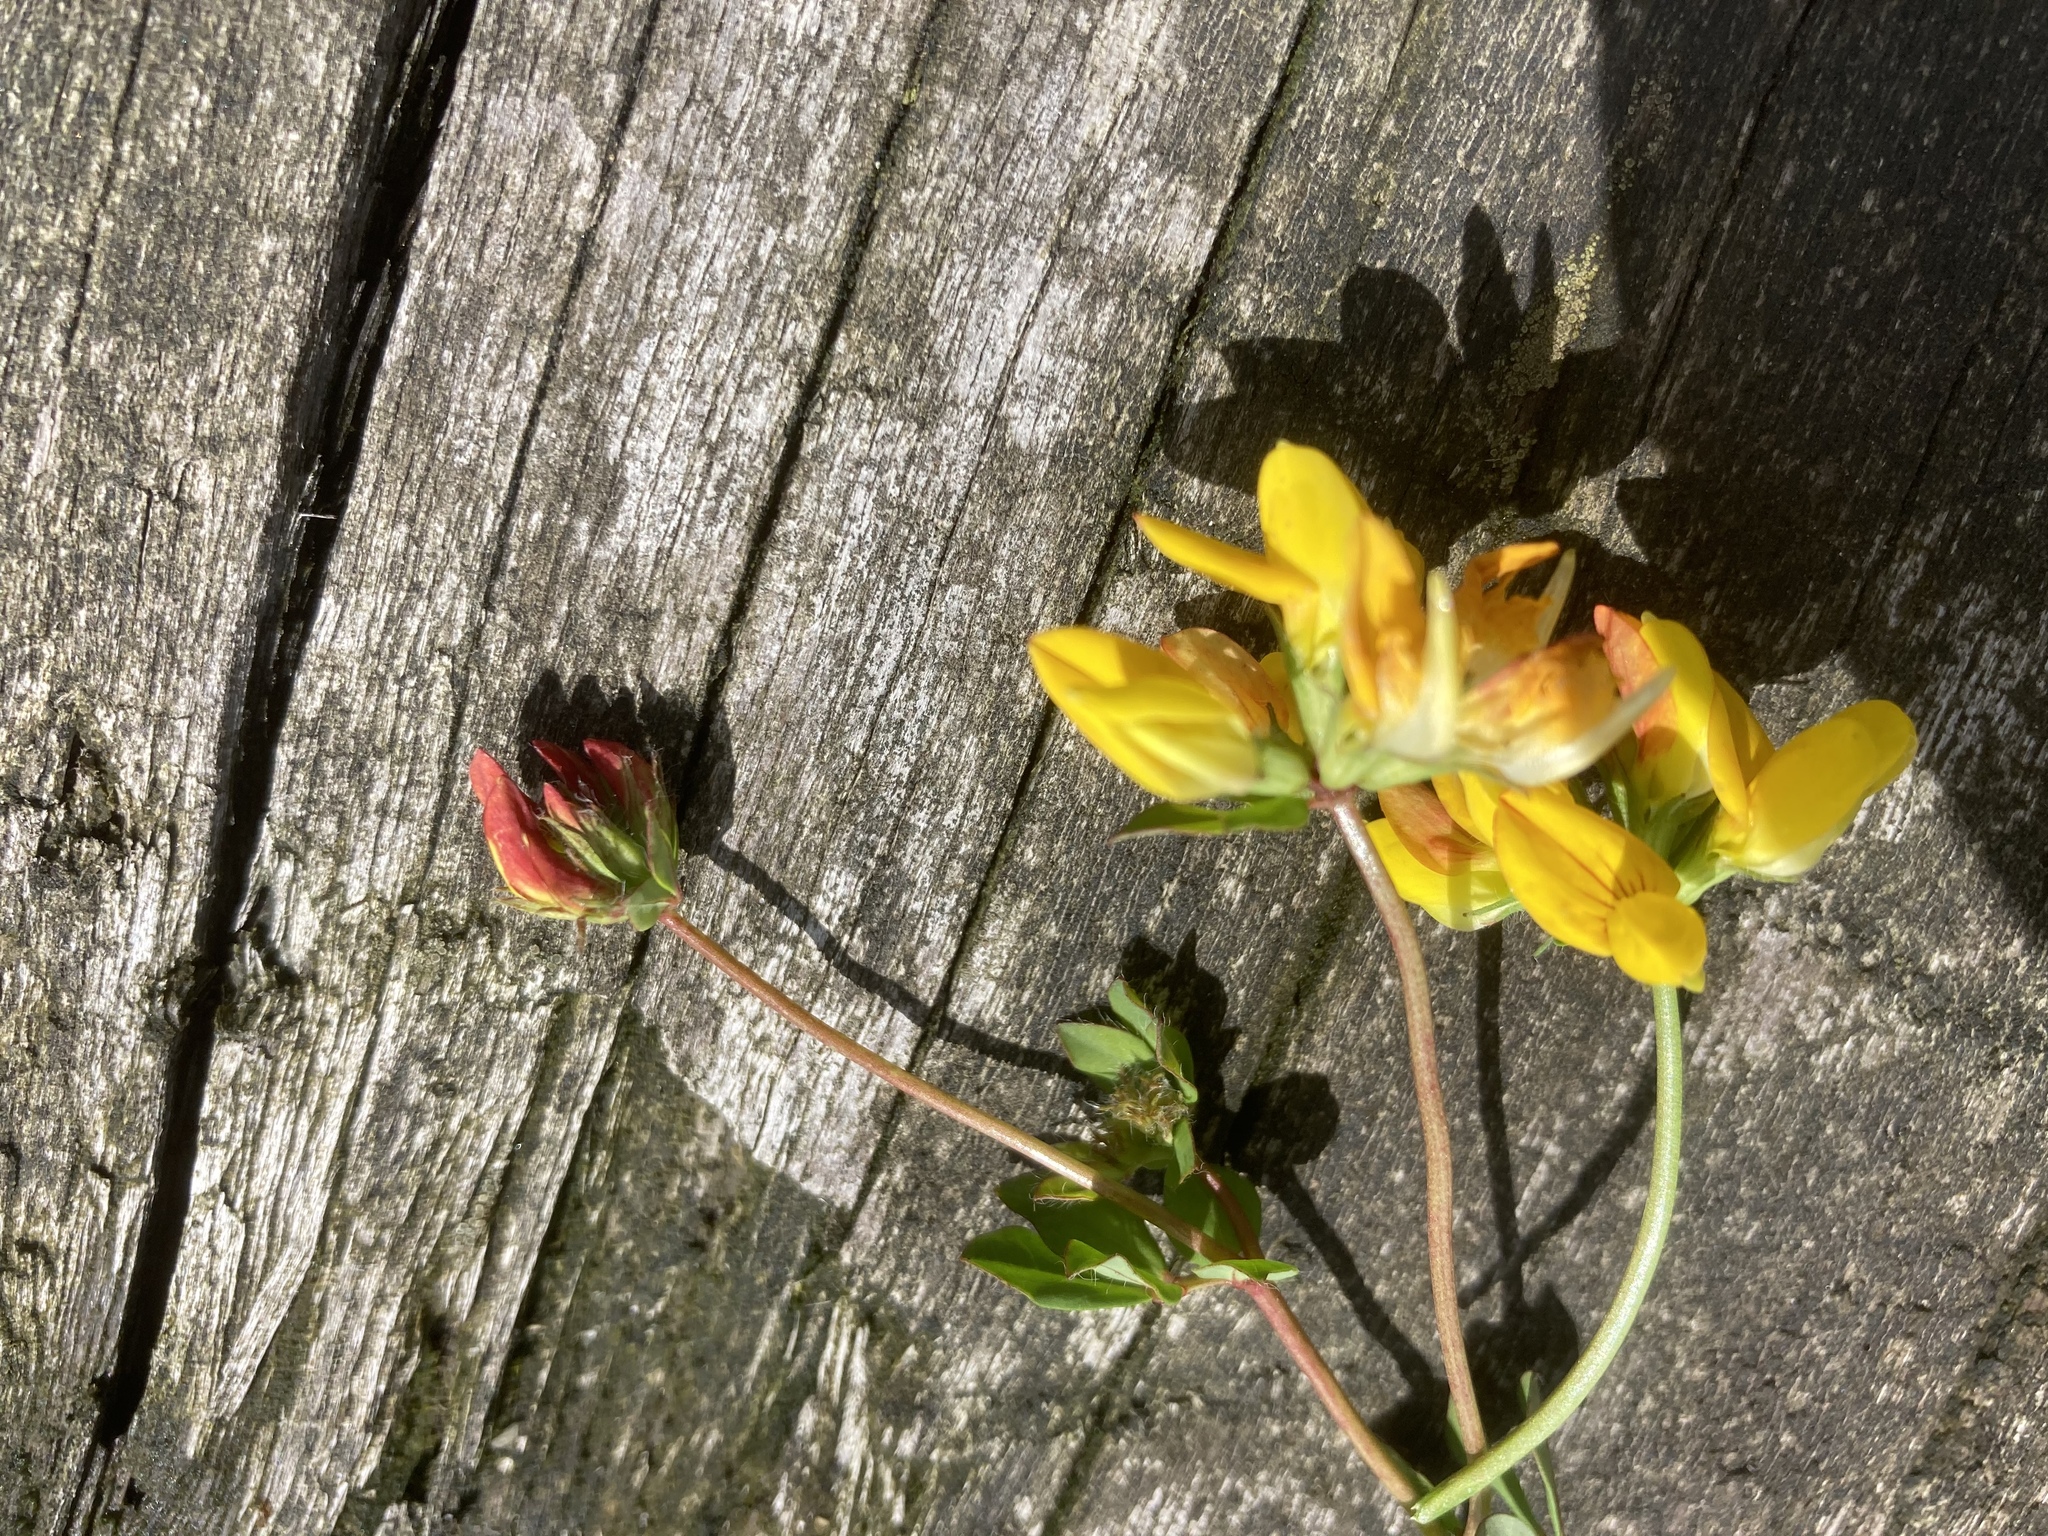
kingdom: Plantae
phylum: Tracheophyta
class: Magnoliopsida
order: Fabales
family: Fabaceae
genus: Lotus
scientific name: Lotus corniculatus
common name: Common bird's-foot-trefoil
